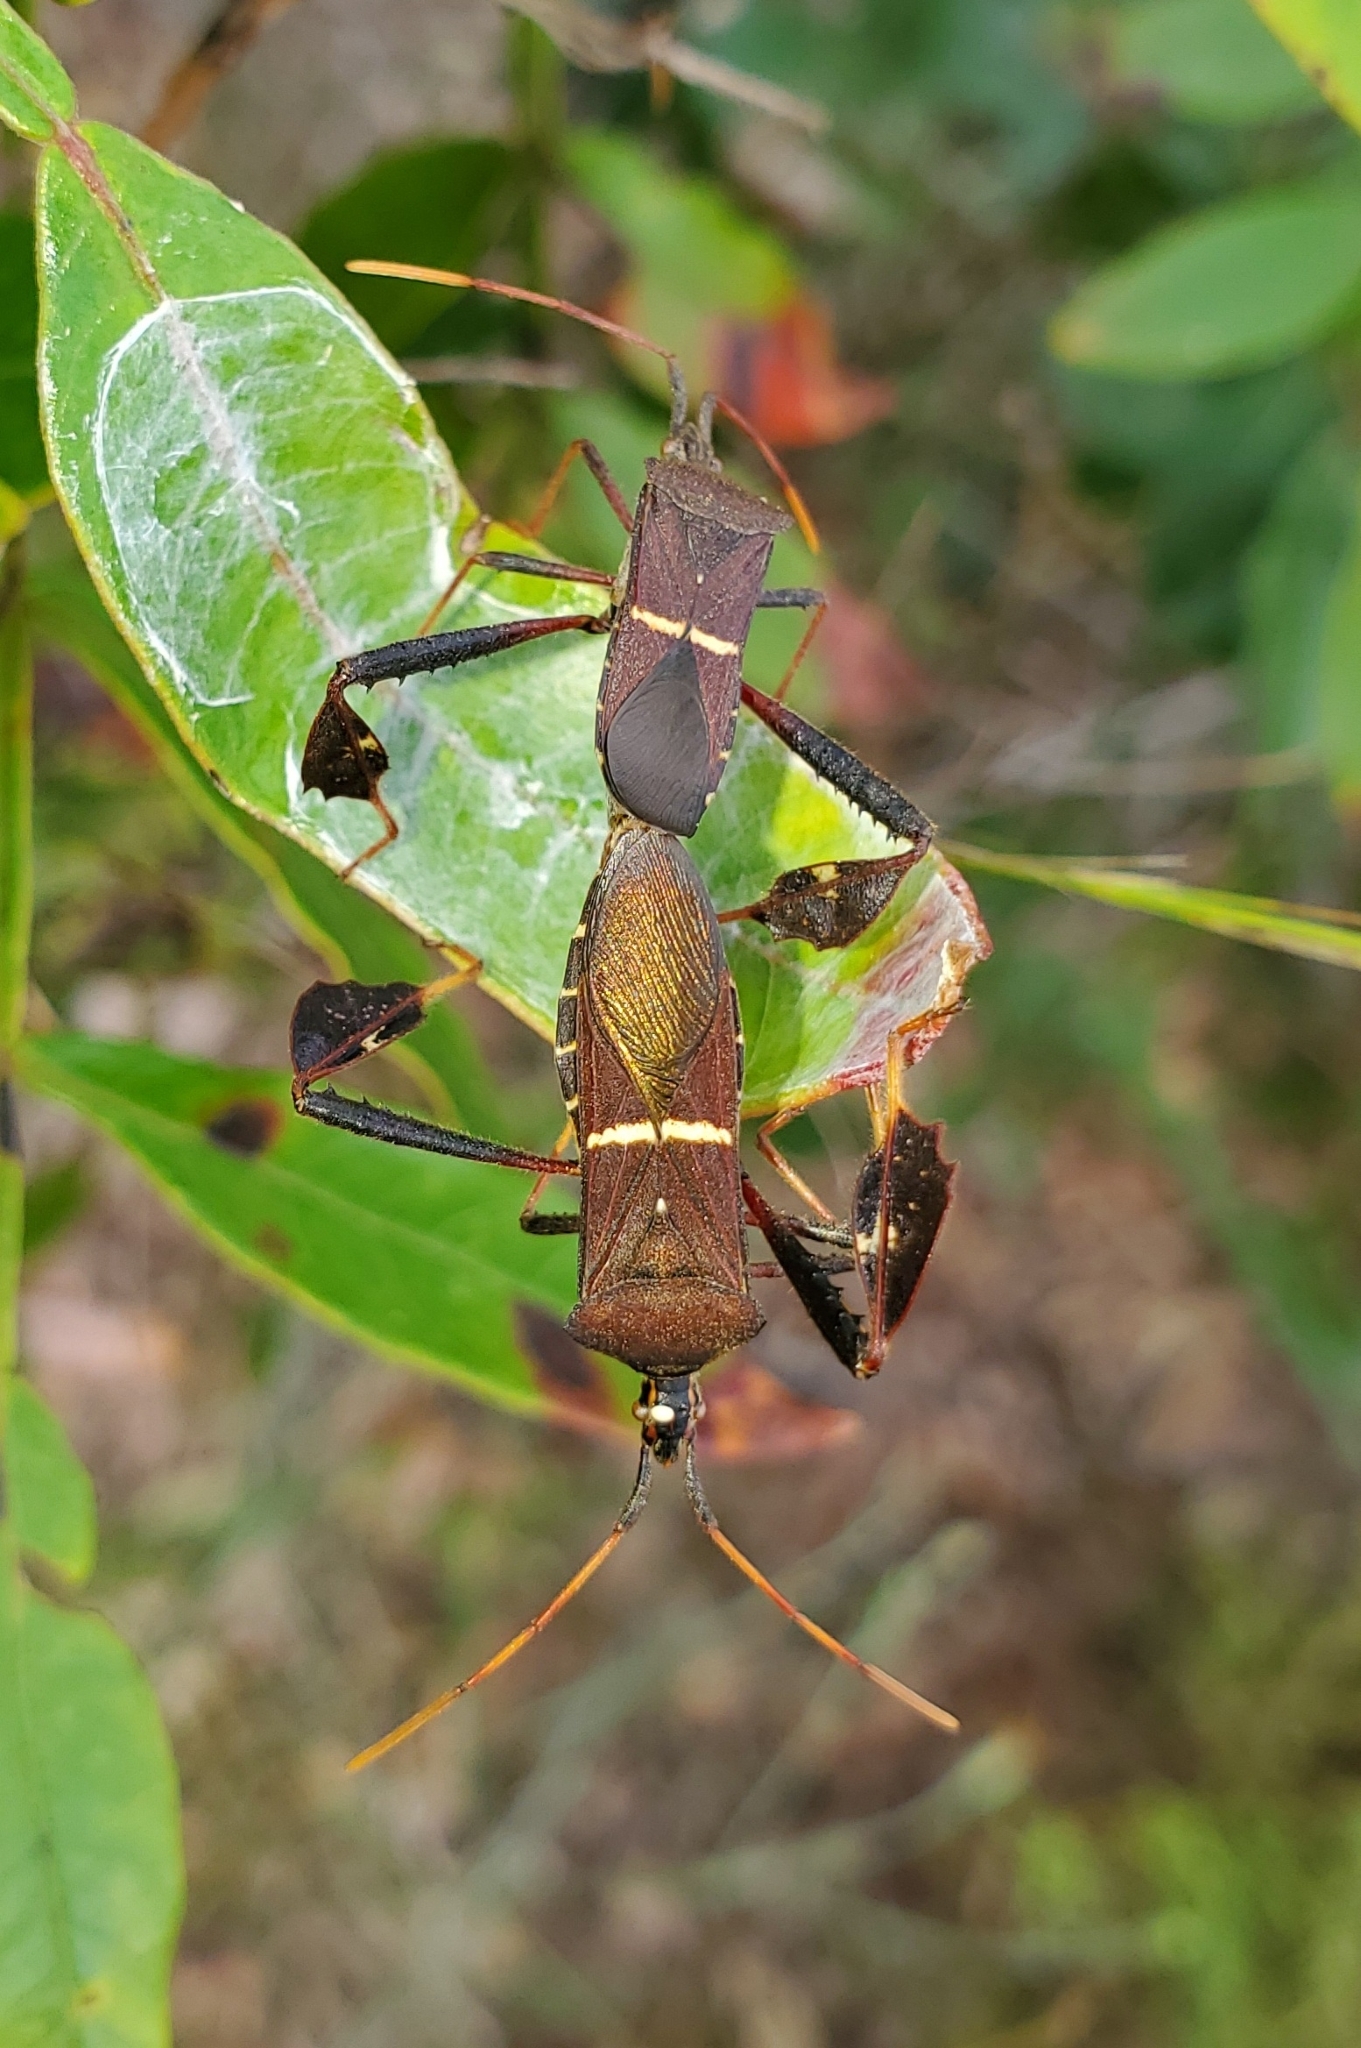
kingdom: Animalia
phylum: Arthropoda
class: Insecta
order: Hemiptera
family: Coreidae
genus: Leptoglossus
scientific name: Leptoglossus phyllopus
